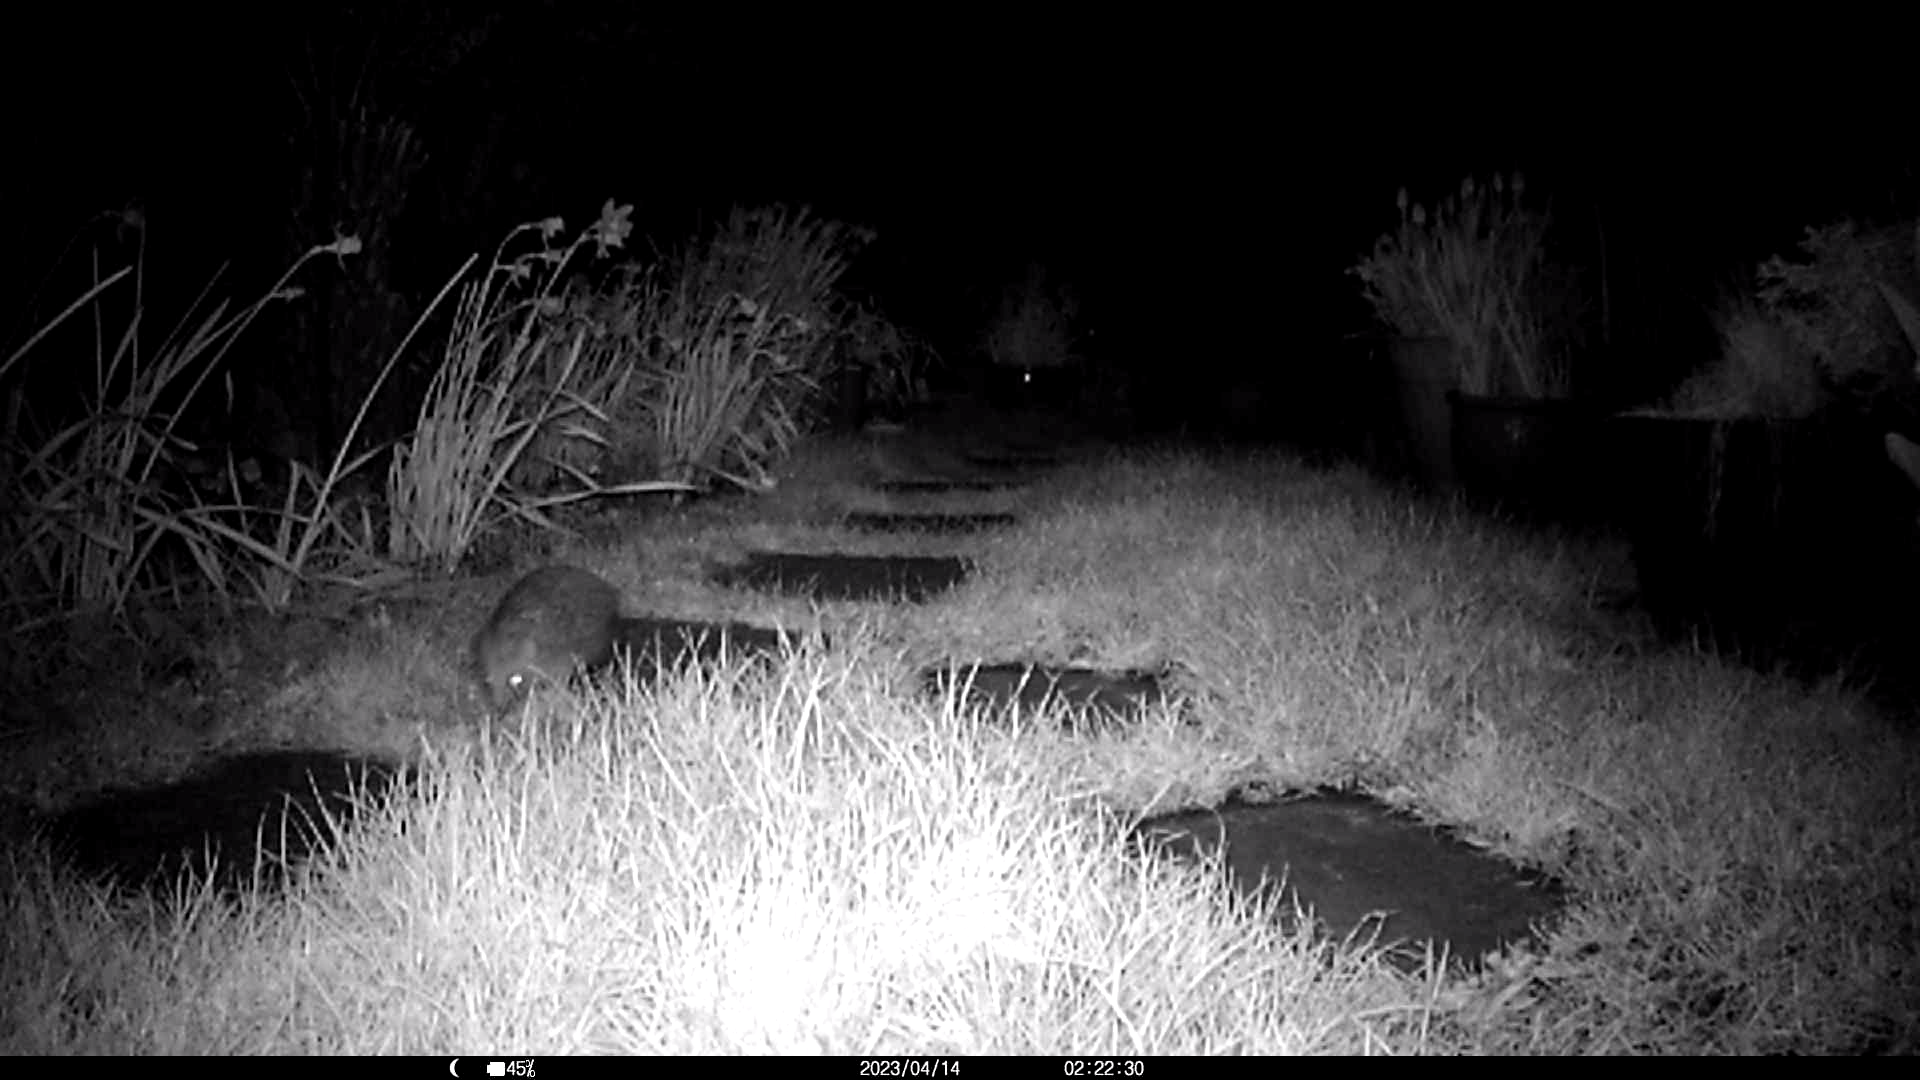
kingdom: Animalia
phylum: Chordata
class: Mammalia
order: Erinaceomorpha
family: Erinaceidae
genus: Erinaceus
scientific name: Erinaceus europaeus
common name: West european hedgehog
